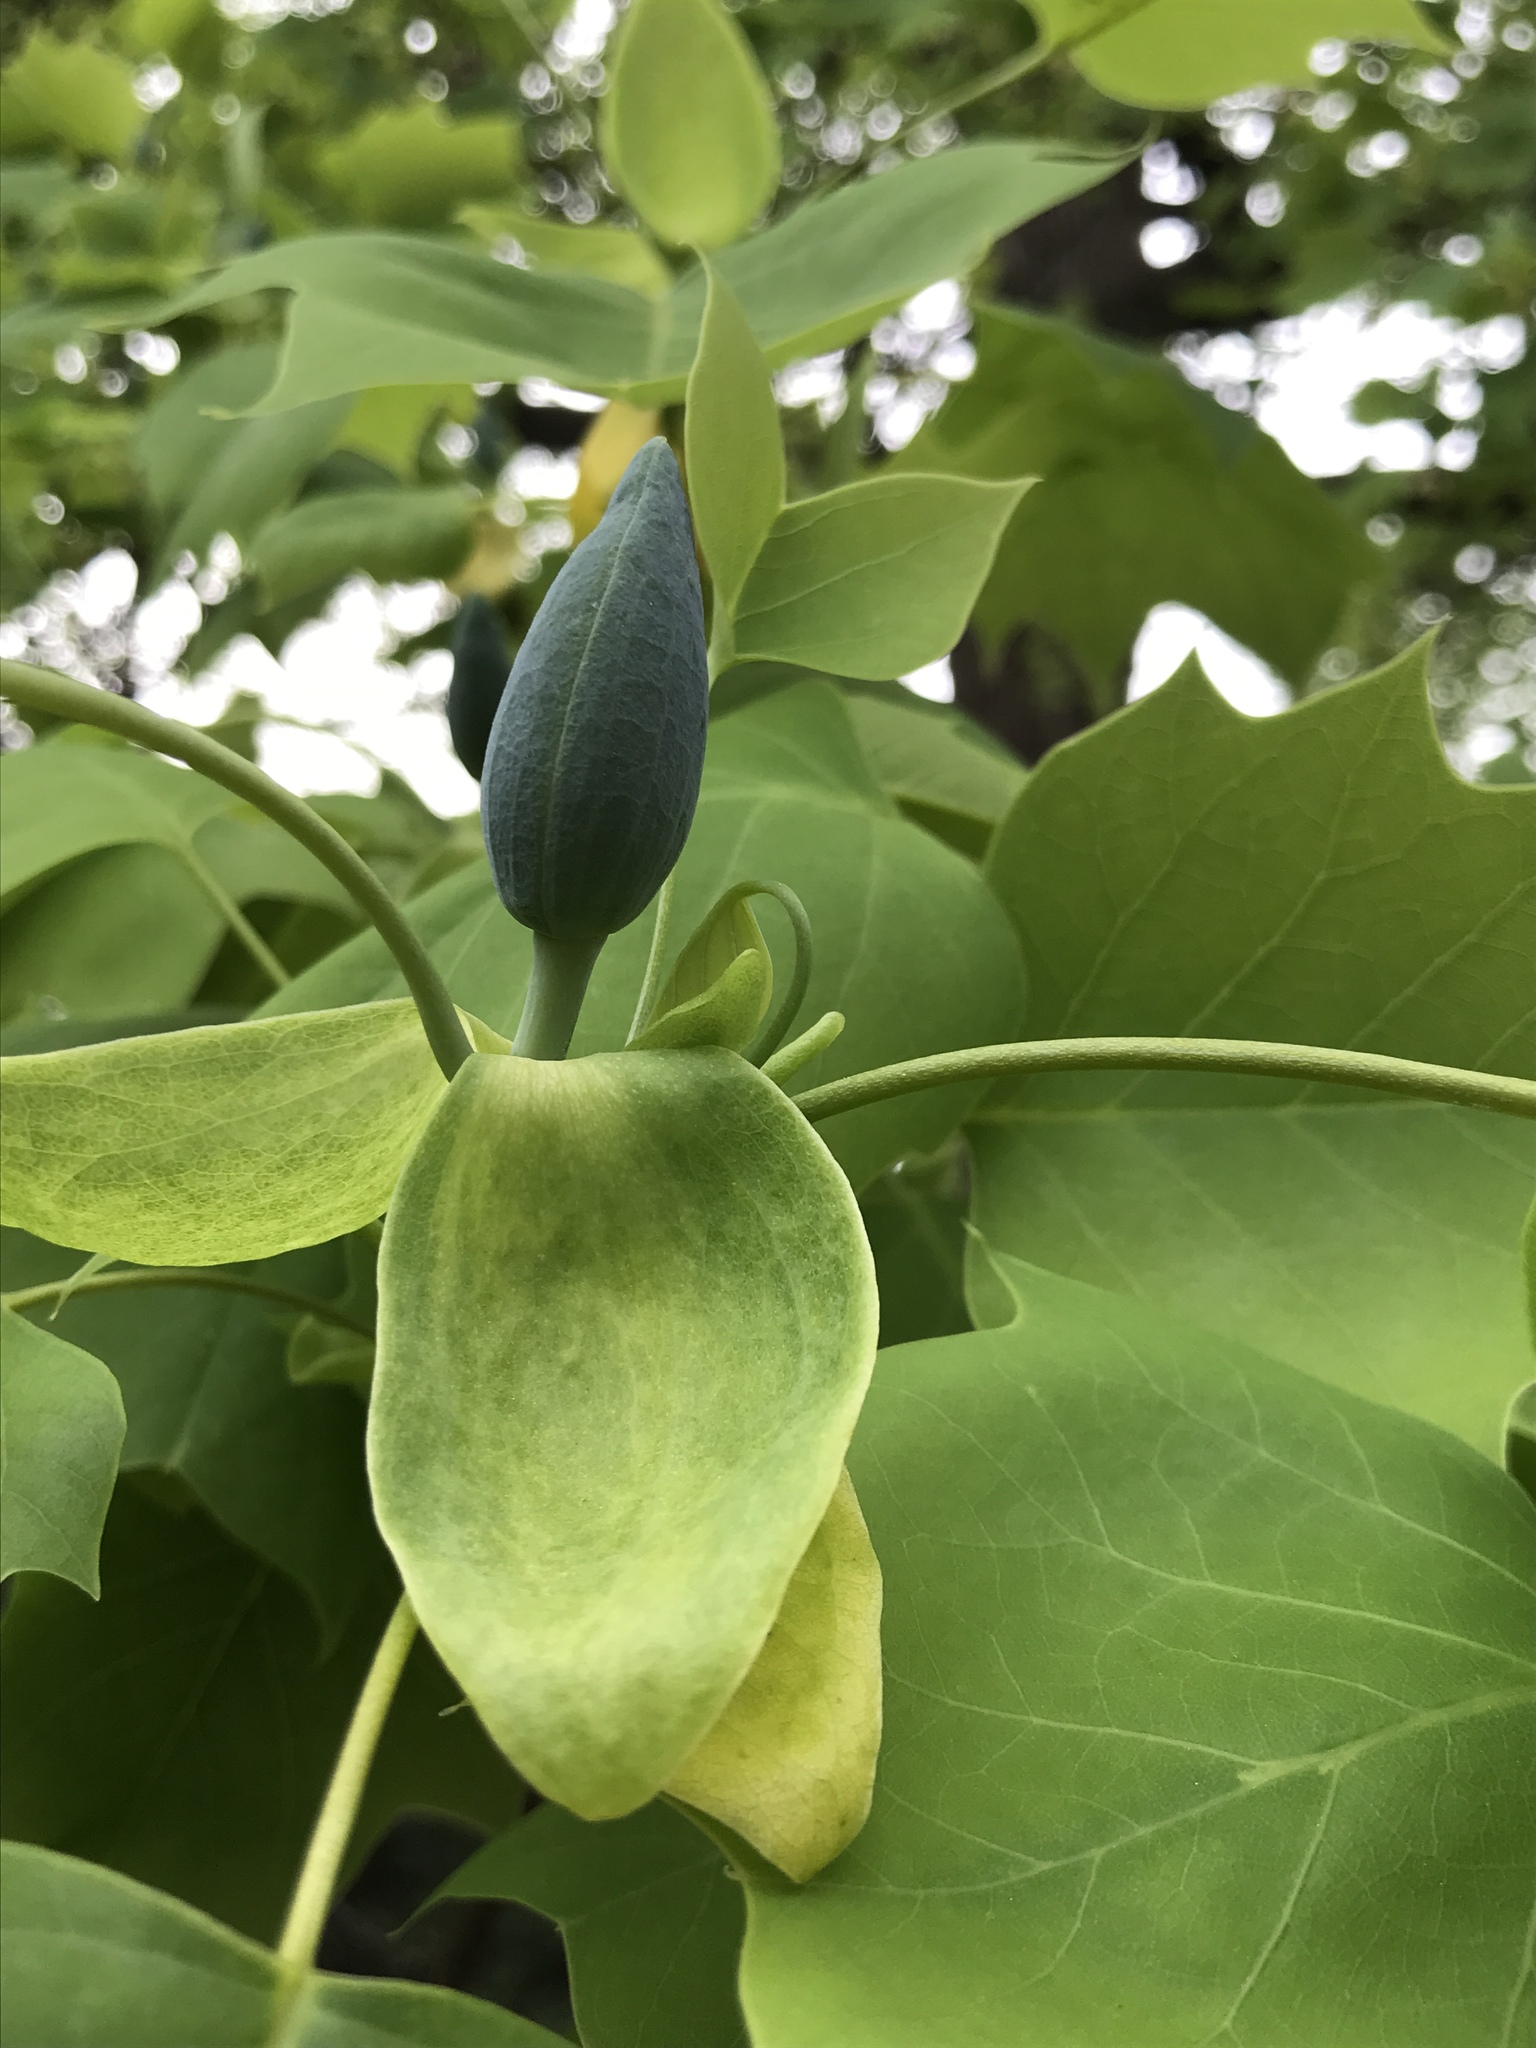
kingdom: Plantae
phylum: Tracheophyta
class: Magnoliopsida
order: Magnoliales
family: Magnoliaceae
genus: Liriodendron
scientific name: Liriodendron tulipifera
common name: Tulip tree
